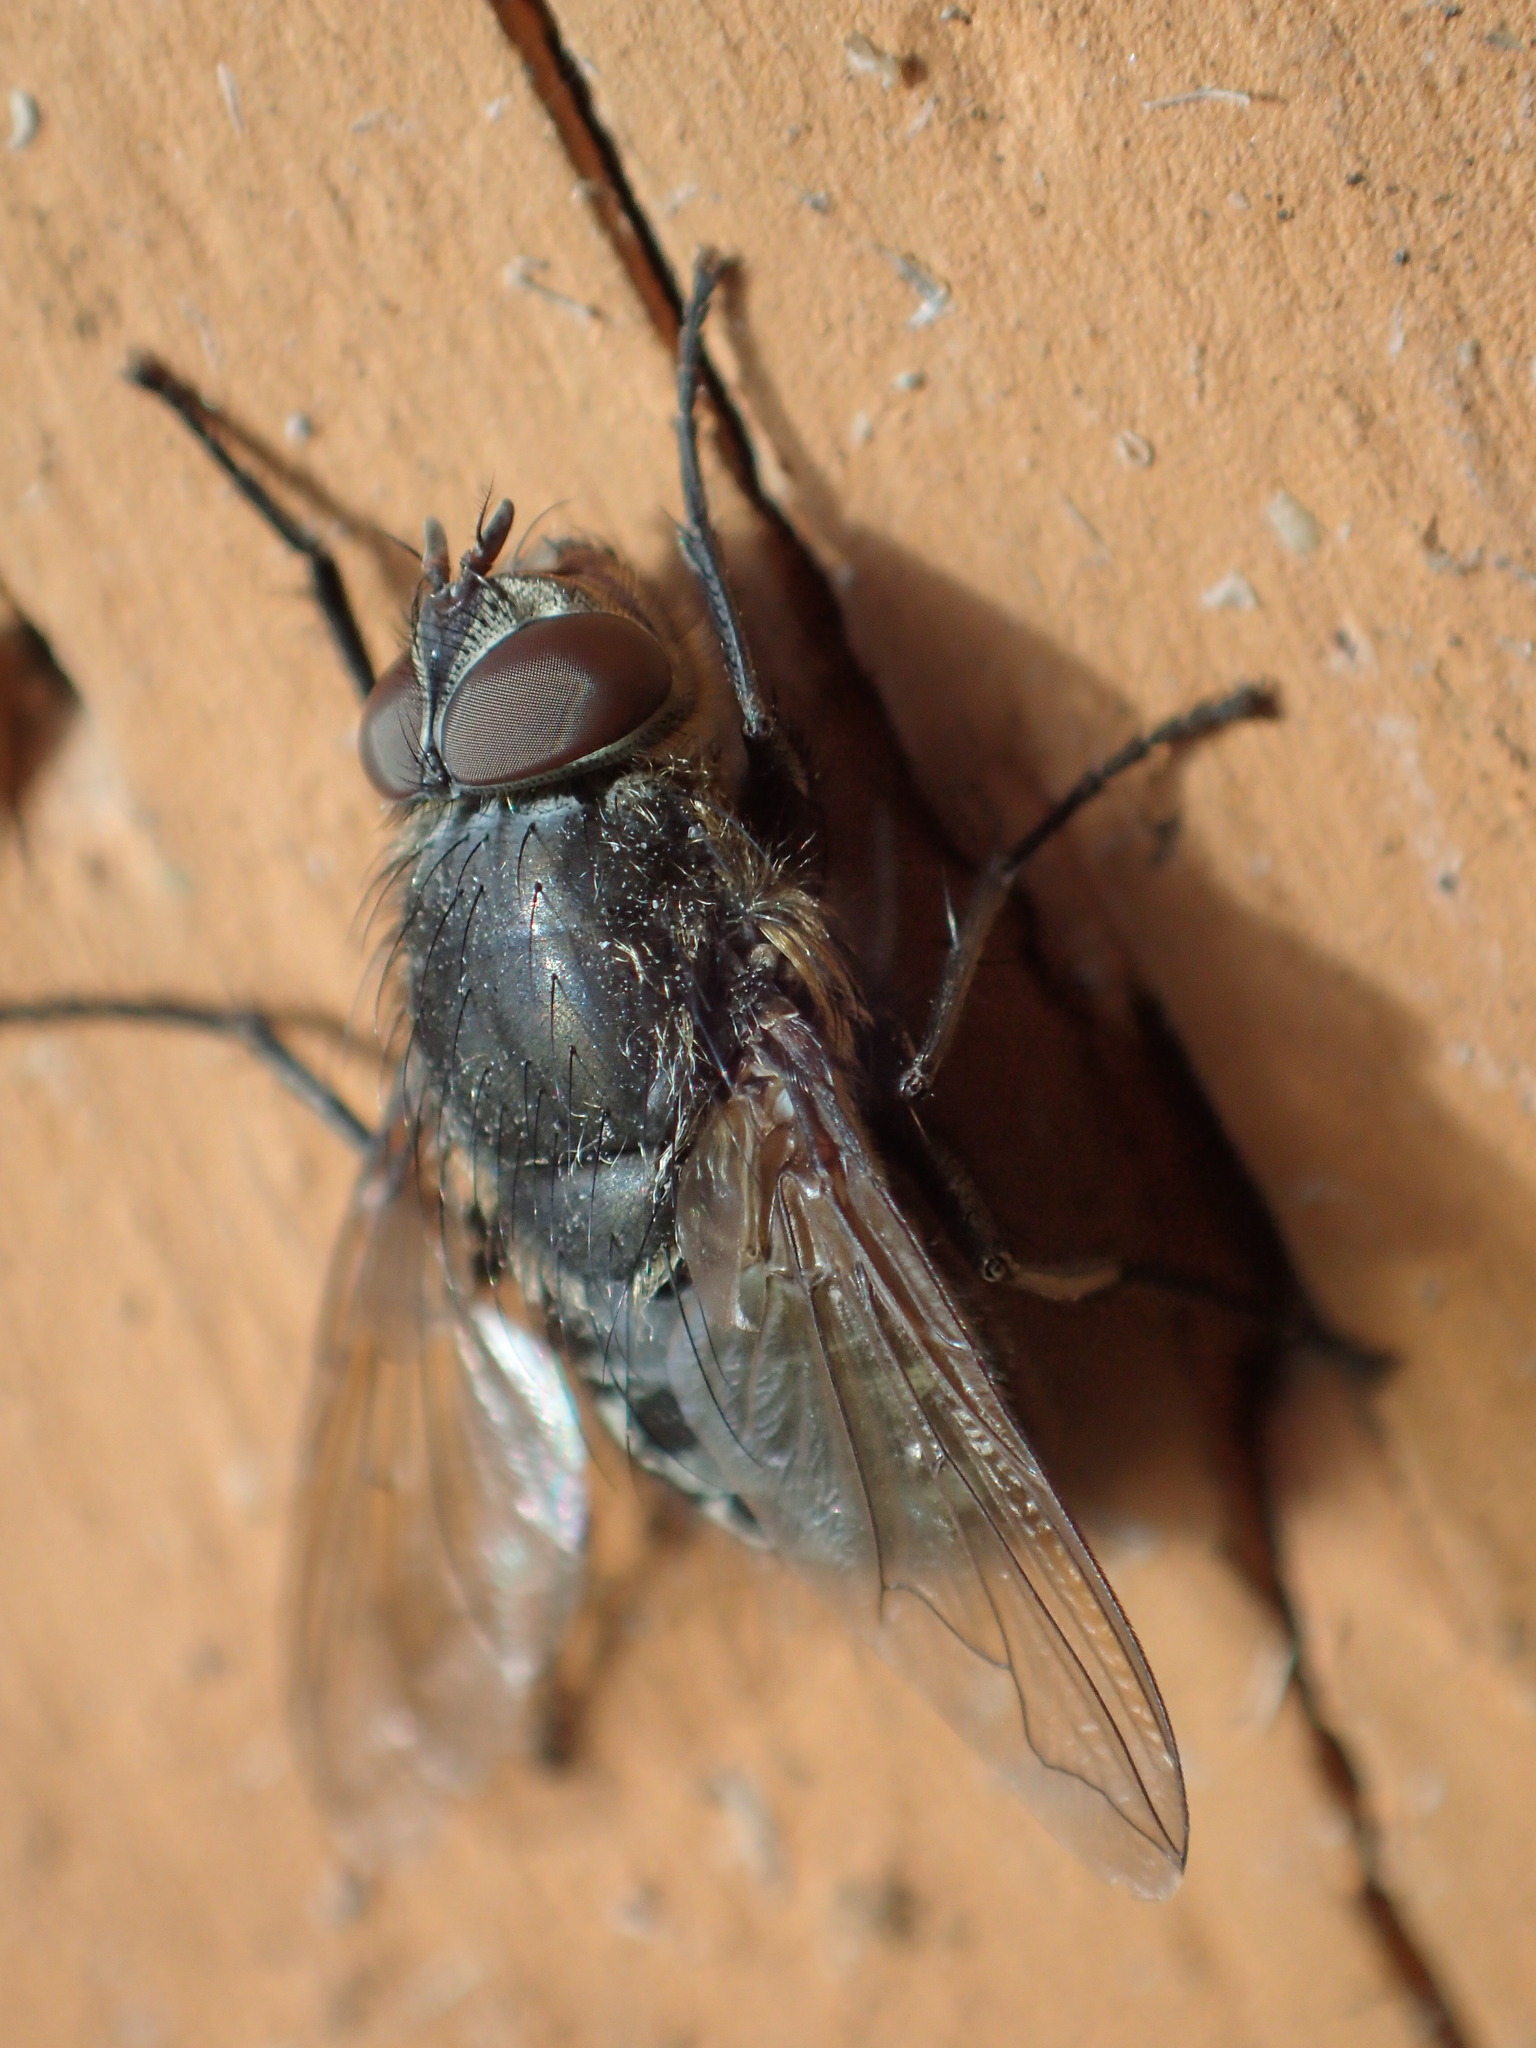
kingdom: Animalia
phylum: Arthropoda
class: Insecta
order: Diptera
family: Polleniidae
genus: Pollenia
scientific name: Pollenia
